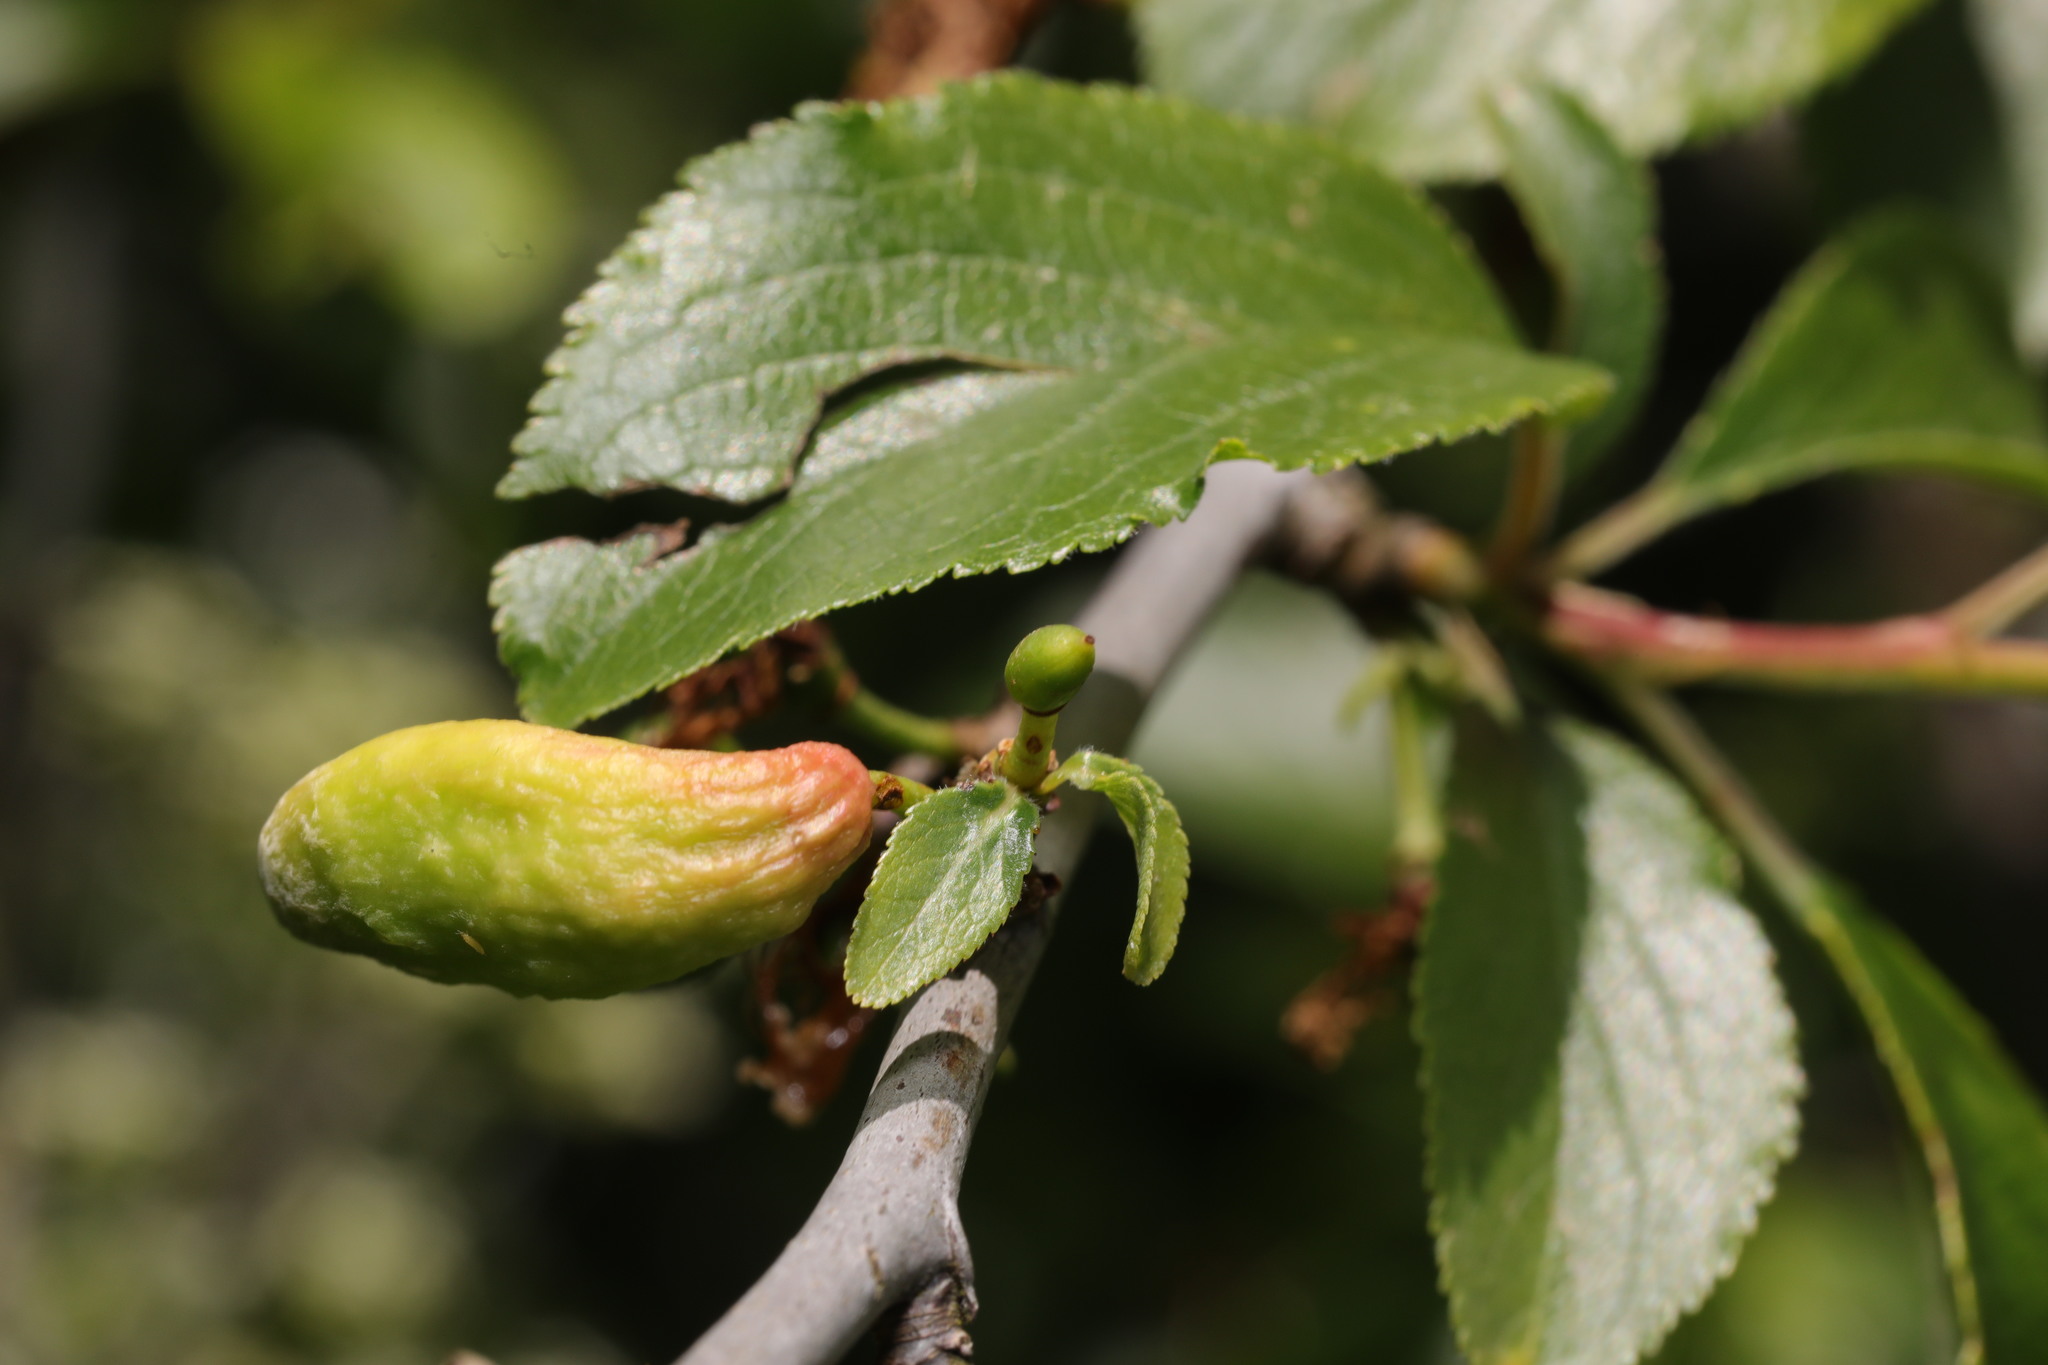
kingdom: Fungi
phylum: Ascomycota
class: Taphrinomycetes
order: Taphrinales
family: Taphrinaceae
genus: Taphrina
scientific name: Taphrina pruni
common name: Pocket plum
